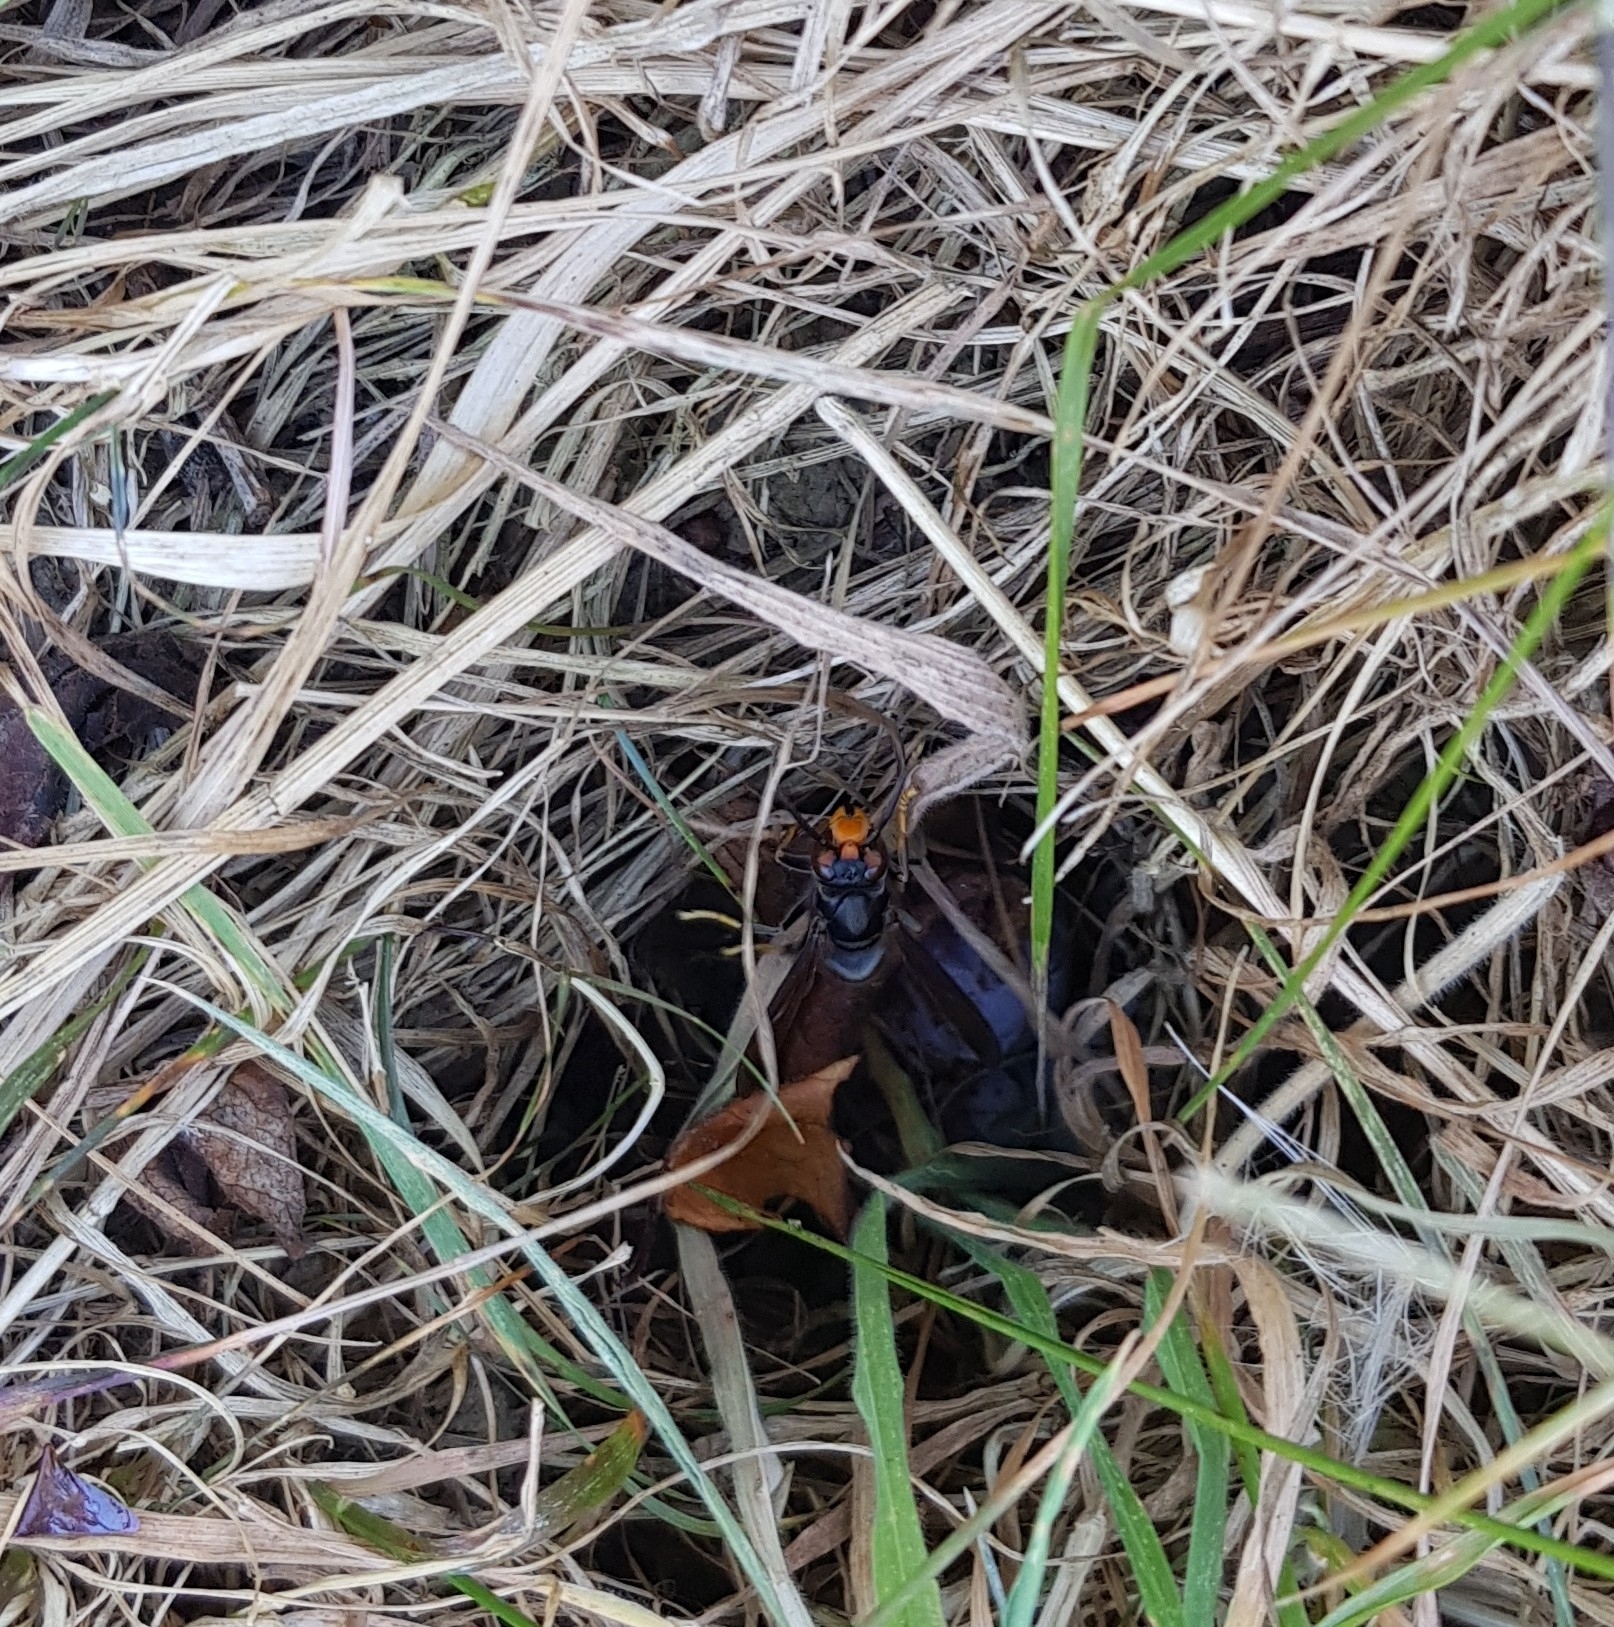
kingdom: Animalia
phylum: Arthropoda
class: Insecta
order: Hymenoptera
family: Vespidae
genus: Vespa
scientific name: Vespa velutina
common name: Asian hornet
